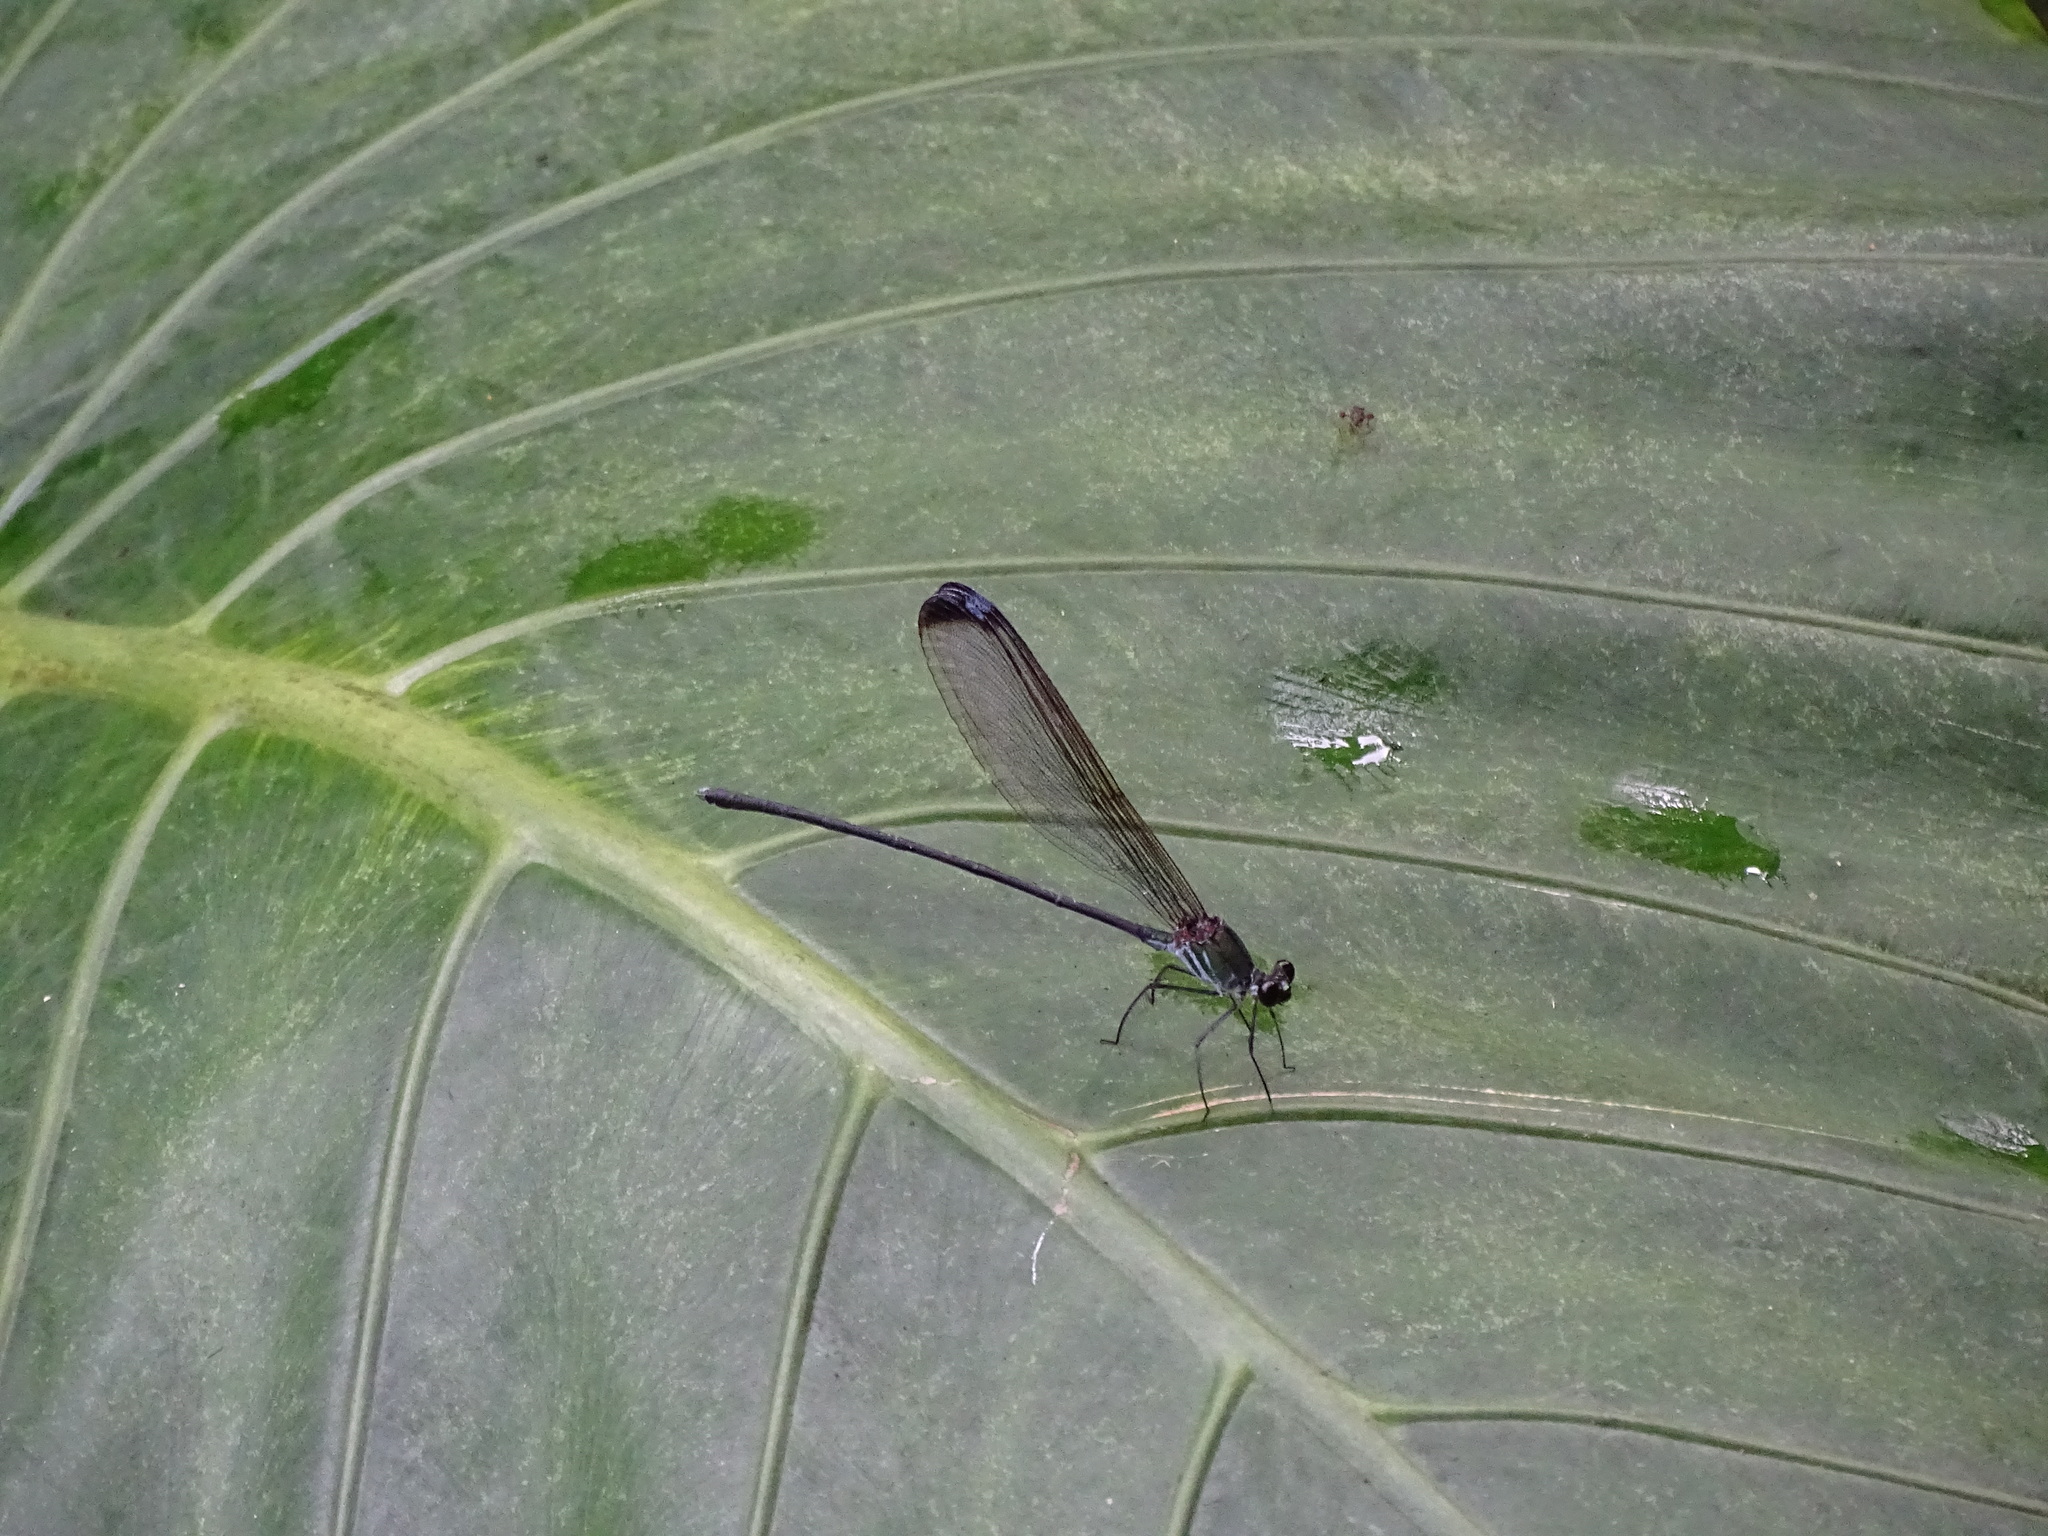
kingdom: Animalia
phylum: Arthropoda
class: Insecta
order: Odonata
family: Calopterygidae
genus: Psolodesmus
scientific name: Psolodesmus mandarinus
